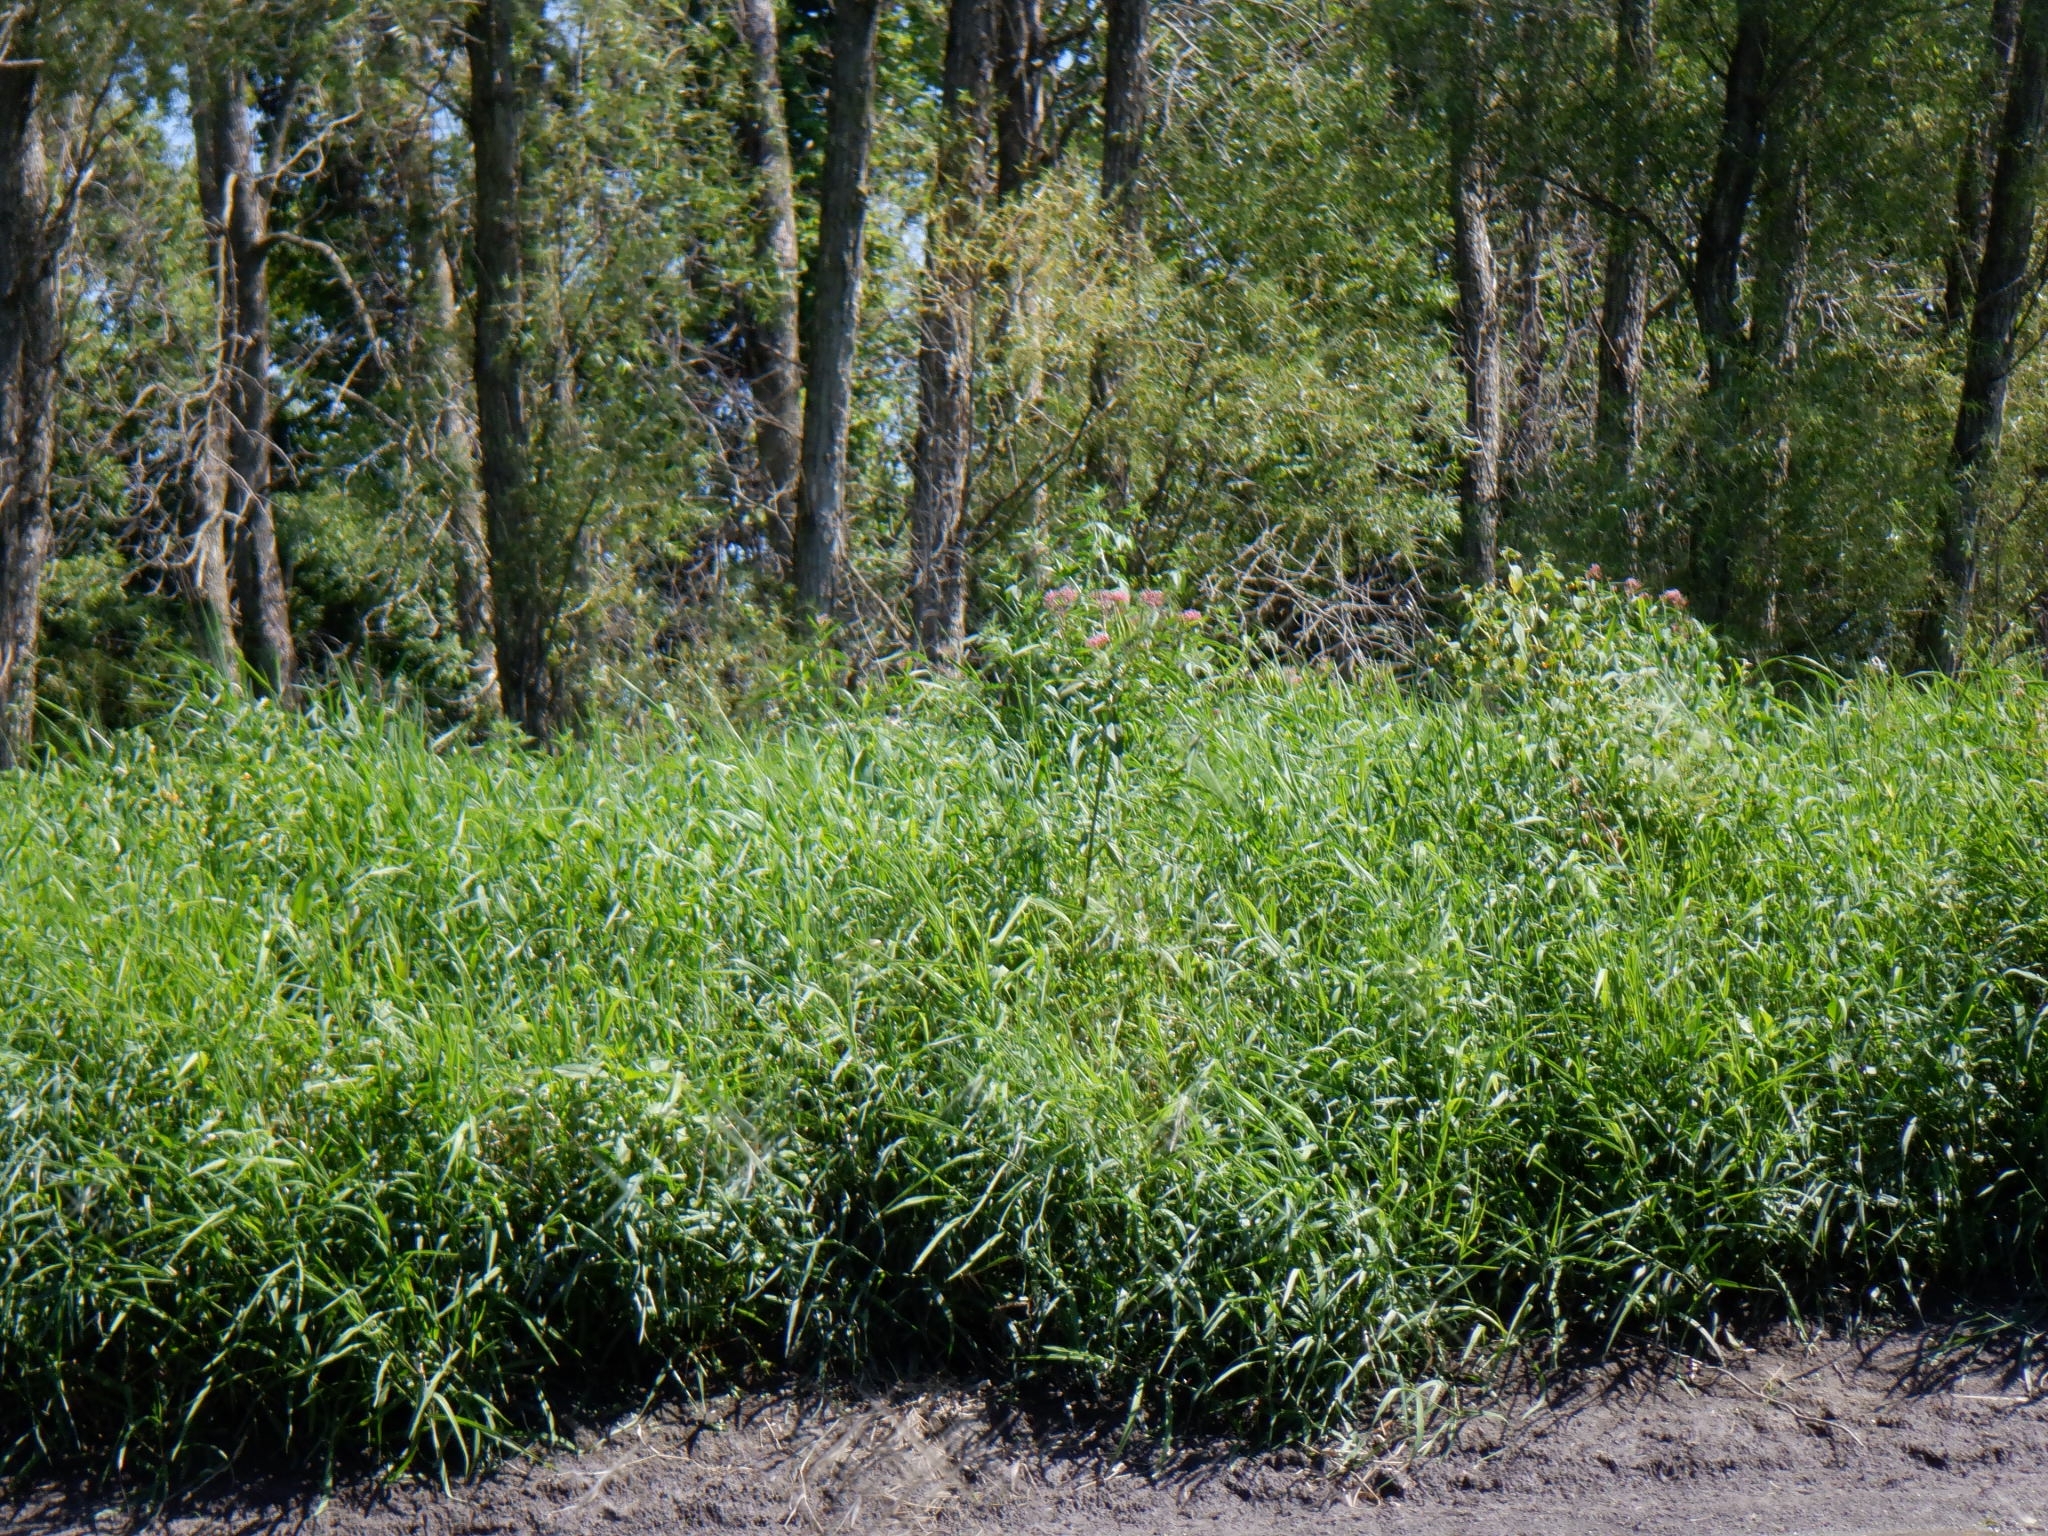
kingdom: Plantae
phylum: Tracheophyta
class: Magnoliopsida
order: Gentianales
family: Apocynaceae
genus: Asclepias
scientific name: Asclepias incarnata
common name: Swamp milkweed
